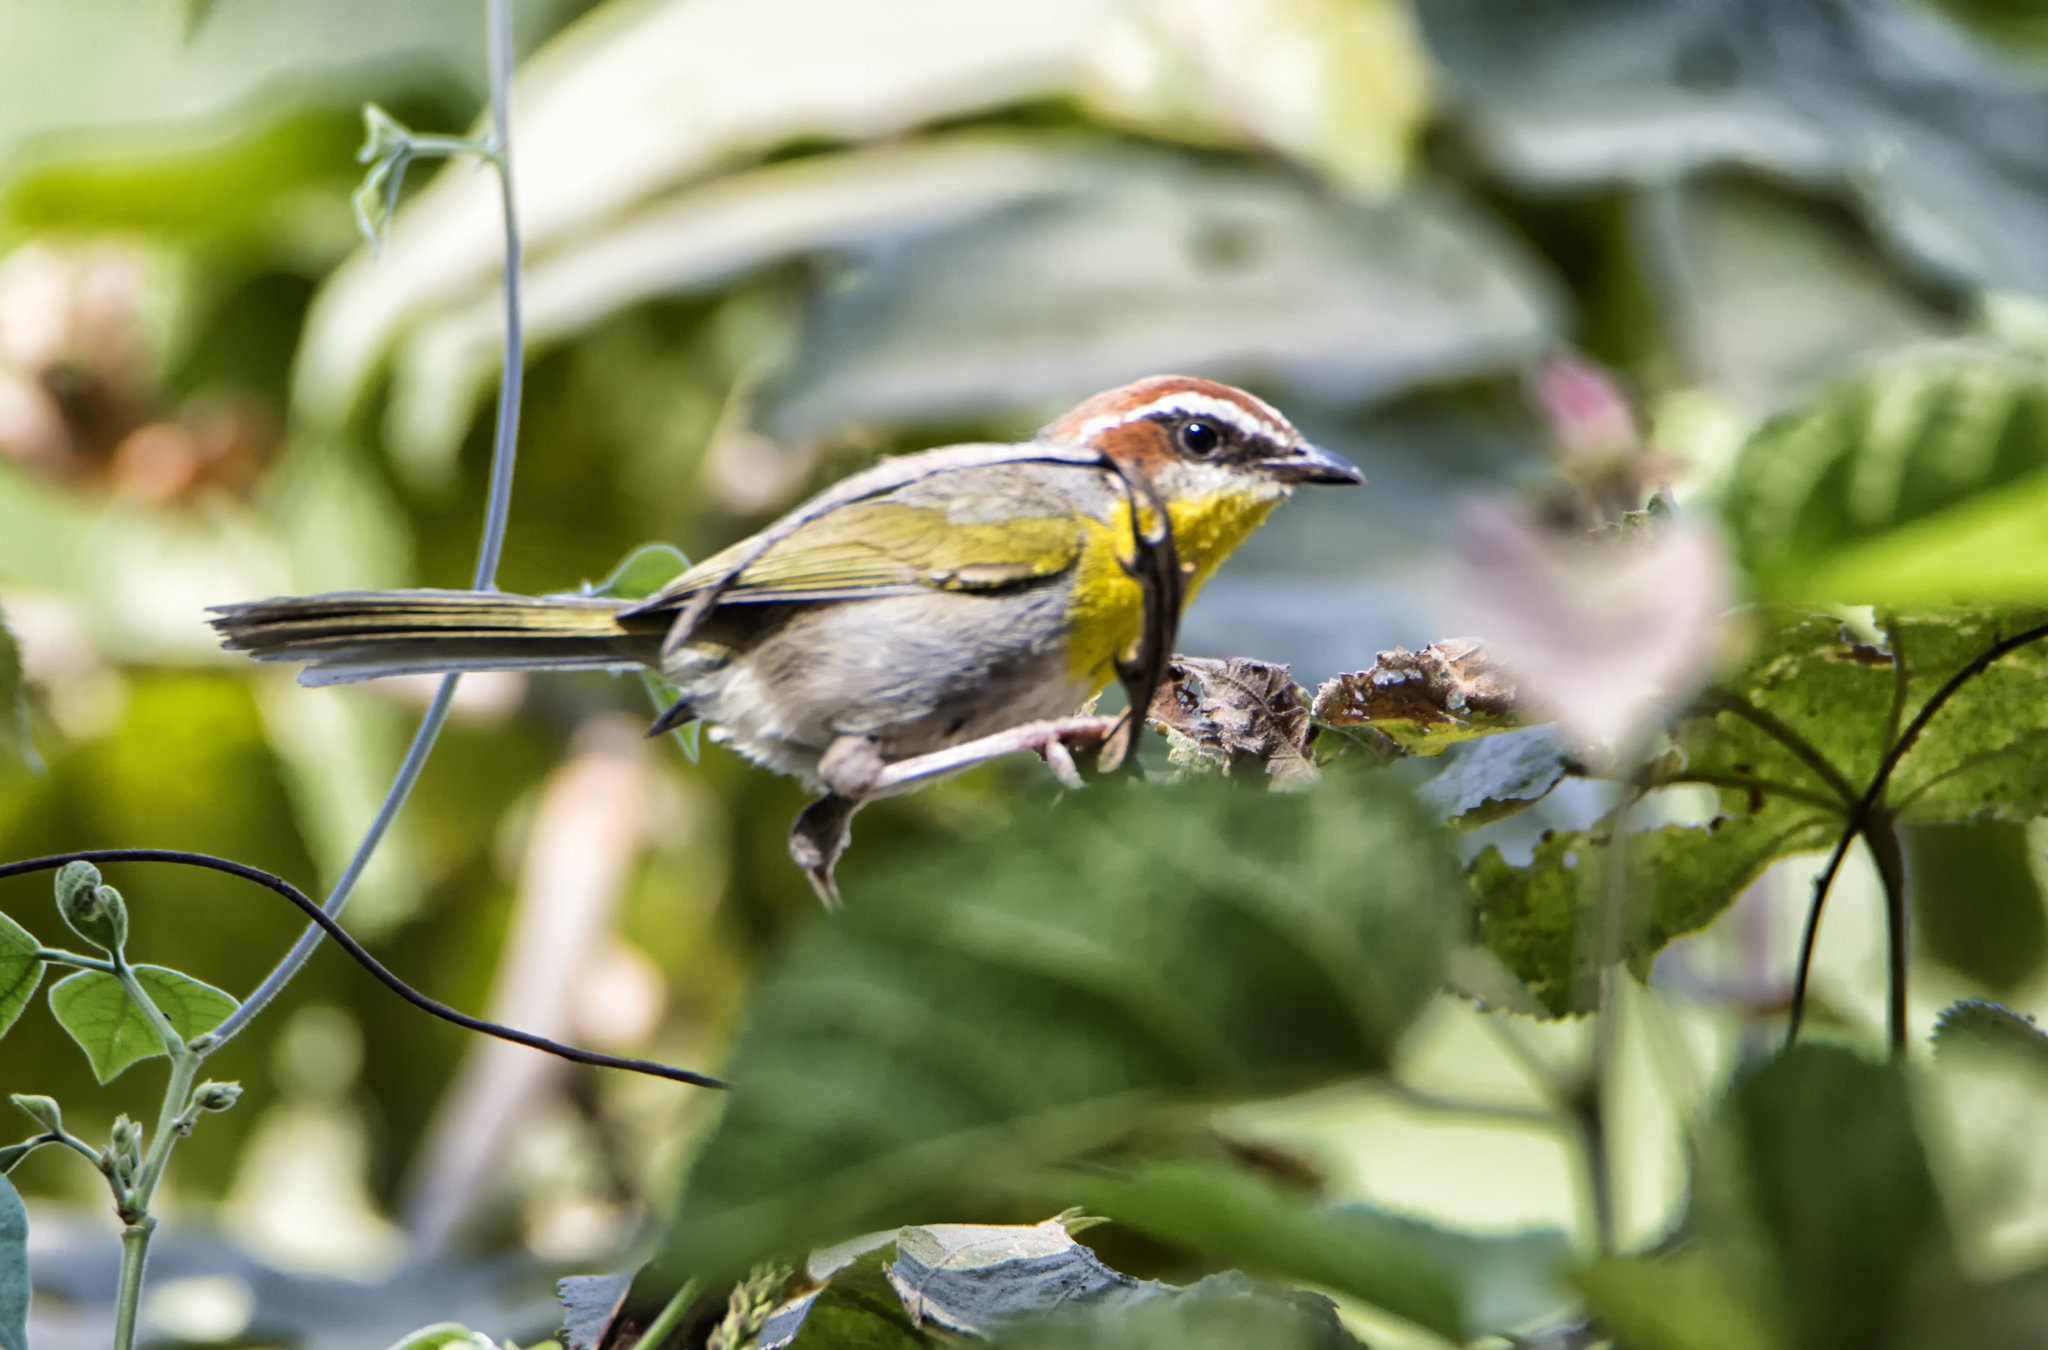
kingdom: Animalia
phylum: Chordata
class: Aves
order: Passeriformes
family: Parulidae
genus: Basileuterus
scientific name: Basileuterus rufifrons
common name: Rufous-capped warbler
